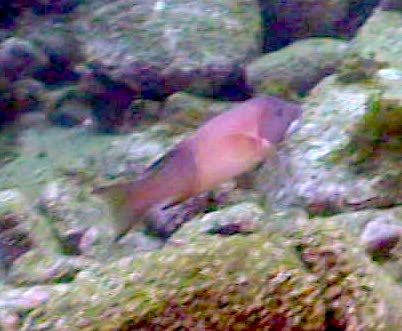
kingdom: Animalia
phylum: Chordata
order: Perciformes
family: Labridae
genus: Semicossyphus
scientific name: Semicossyphus pulcher
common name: California sheephead
